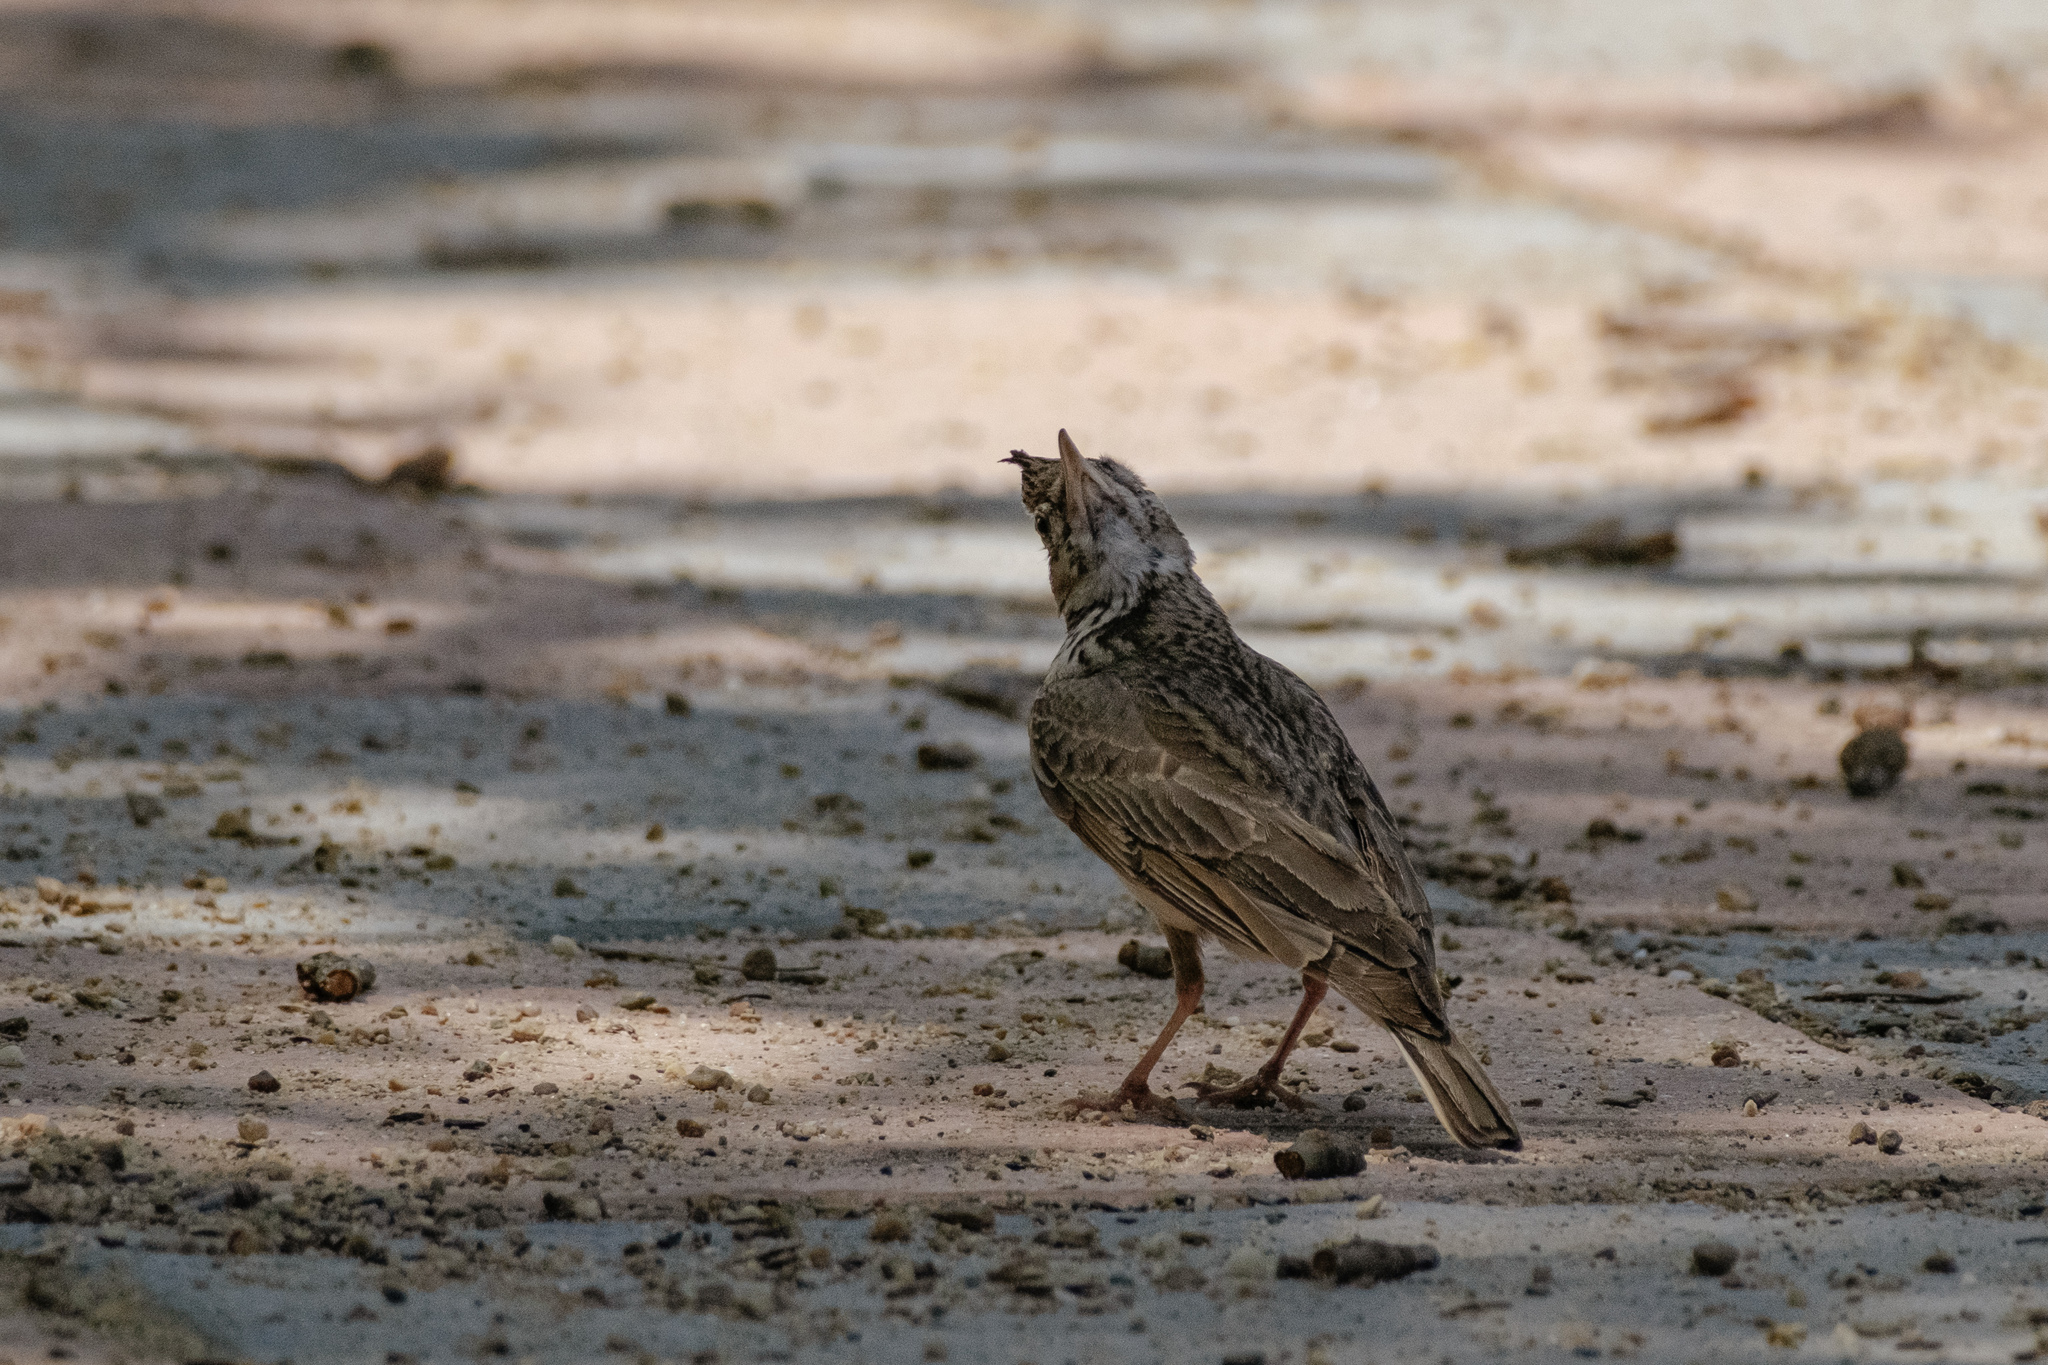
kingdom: Animalia
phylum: Chordata
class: Aves
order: Passeriformes
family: Alaudidae
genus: Galerida
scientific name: Galerida cristata
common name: Crested lark
